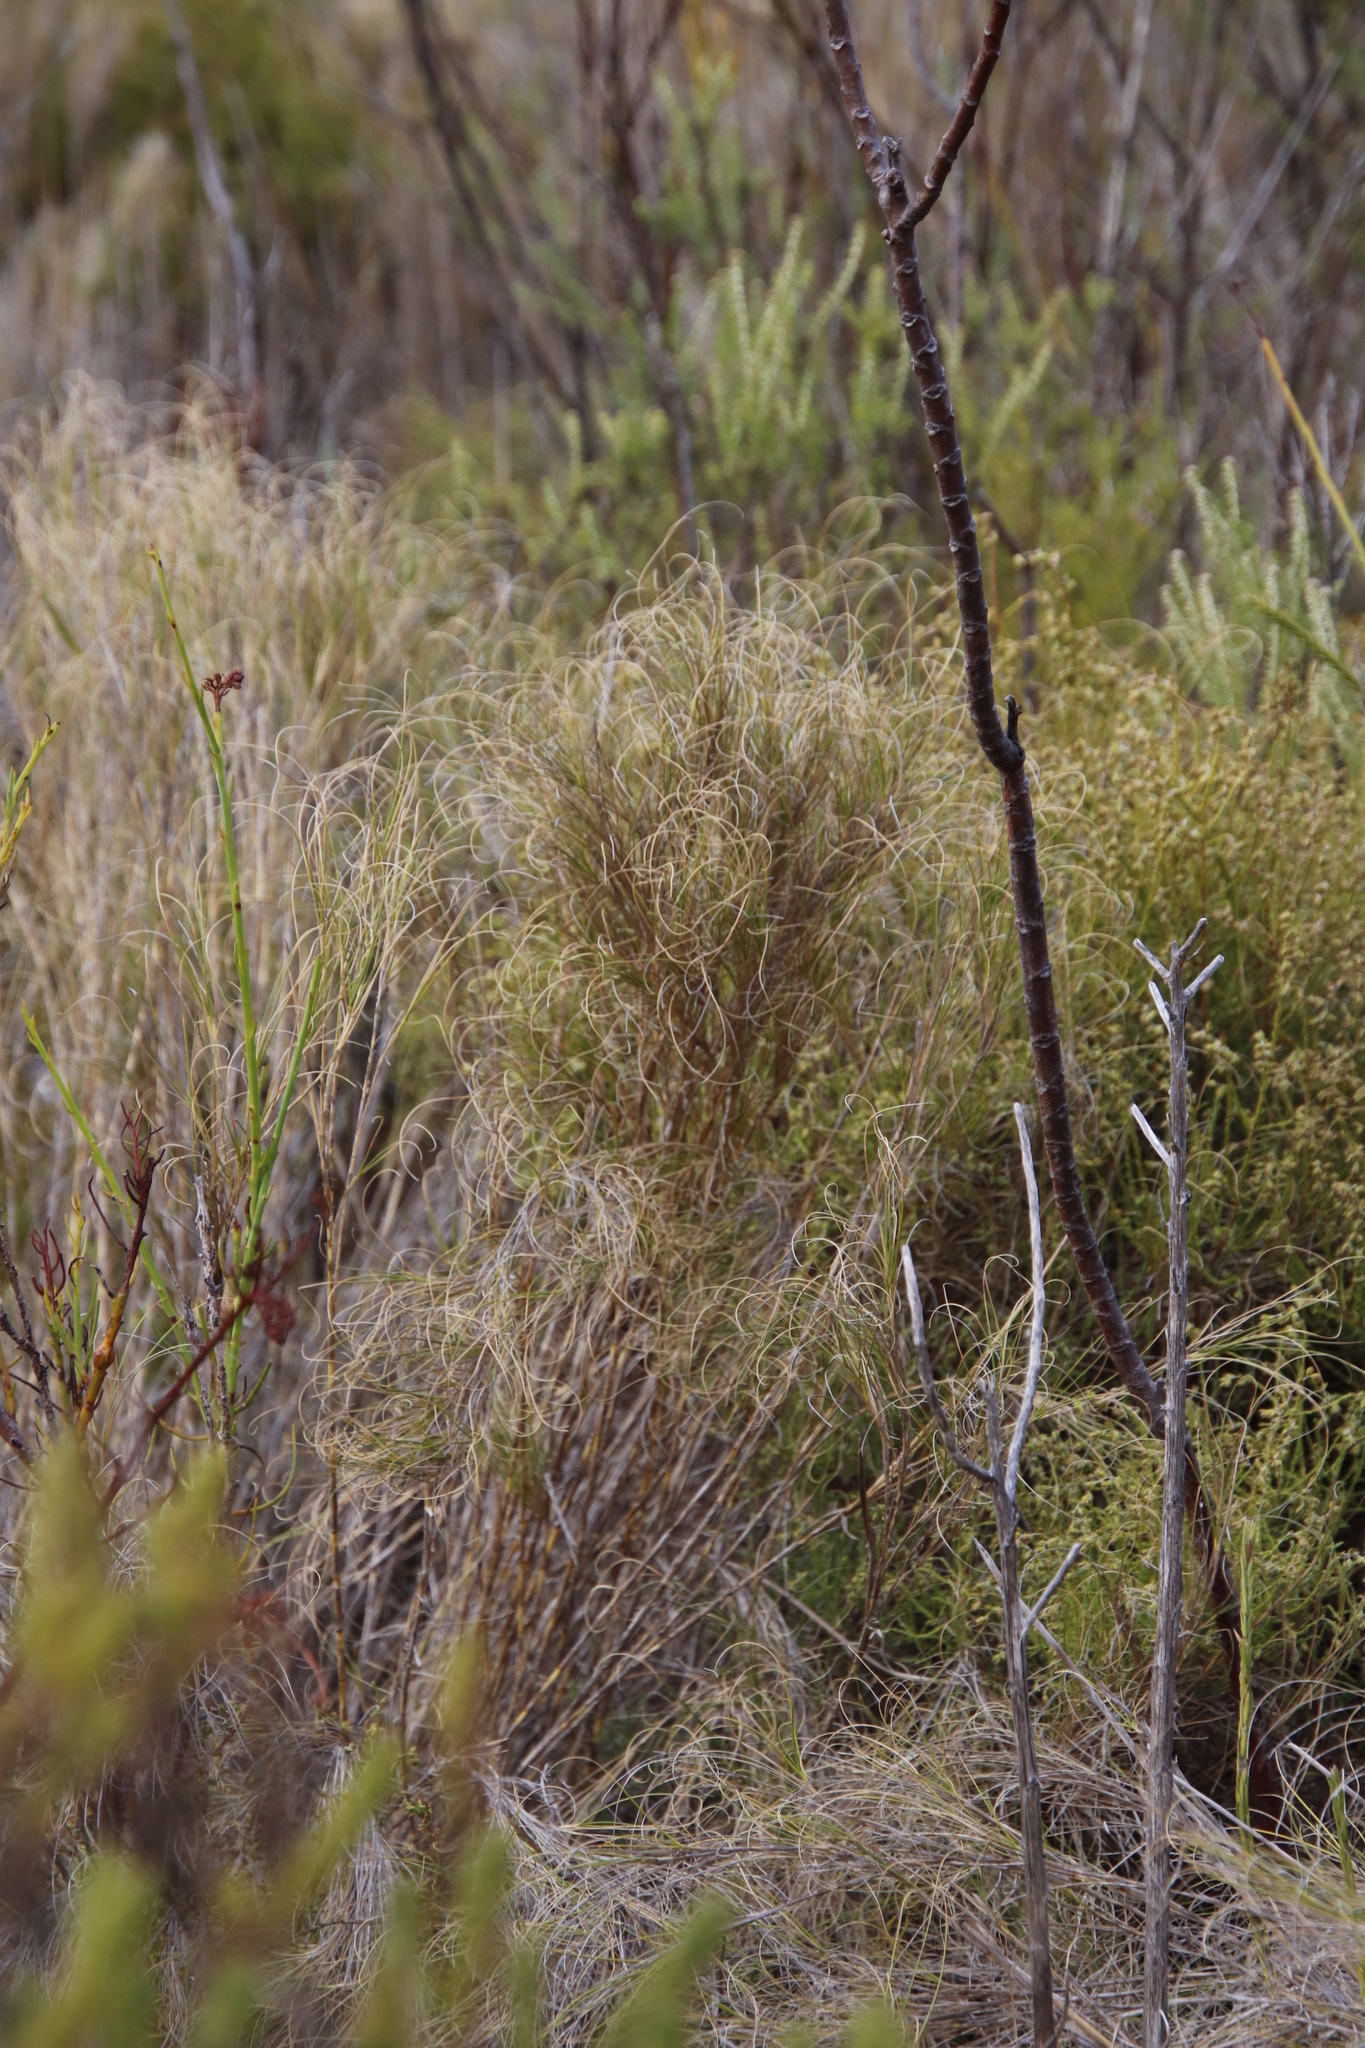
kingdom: Plantae
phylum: Tracheophyta
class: Liliopsida
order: Poales
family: Poaceae
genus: Pseudopentameris
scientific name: Pseudopentameris macrantha
